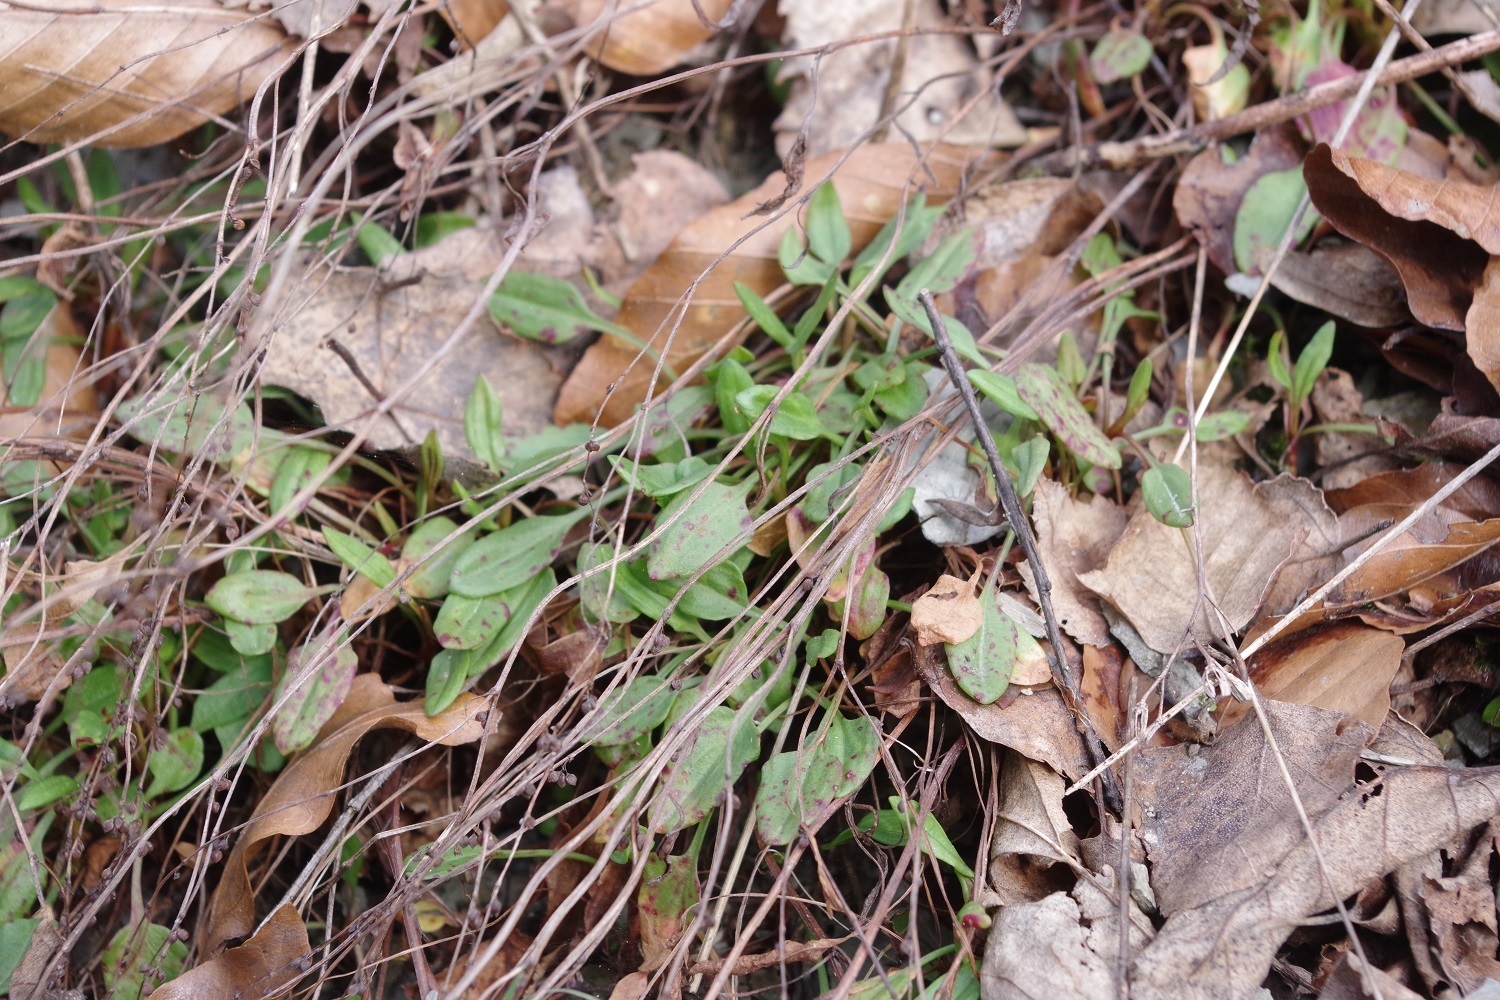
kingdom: Plantae
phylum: Tracheophyta
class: Magnoliopsida
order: Caryophyllales
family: Polygonaceae
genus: Rumex
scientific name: Rumex acetosella
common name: Common sheep sorrel
